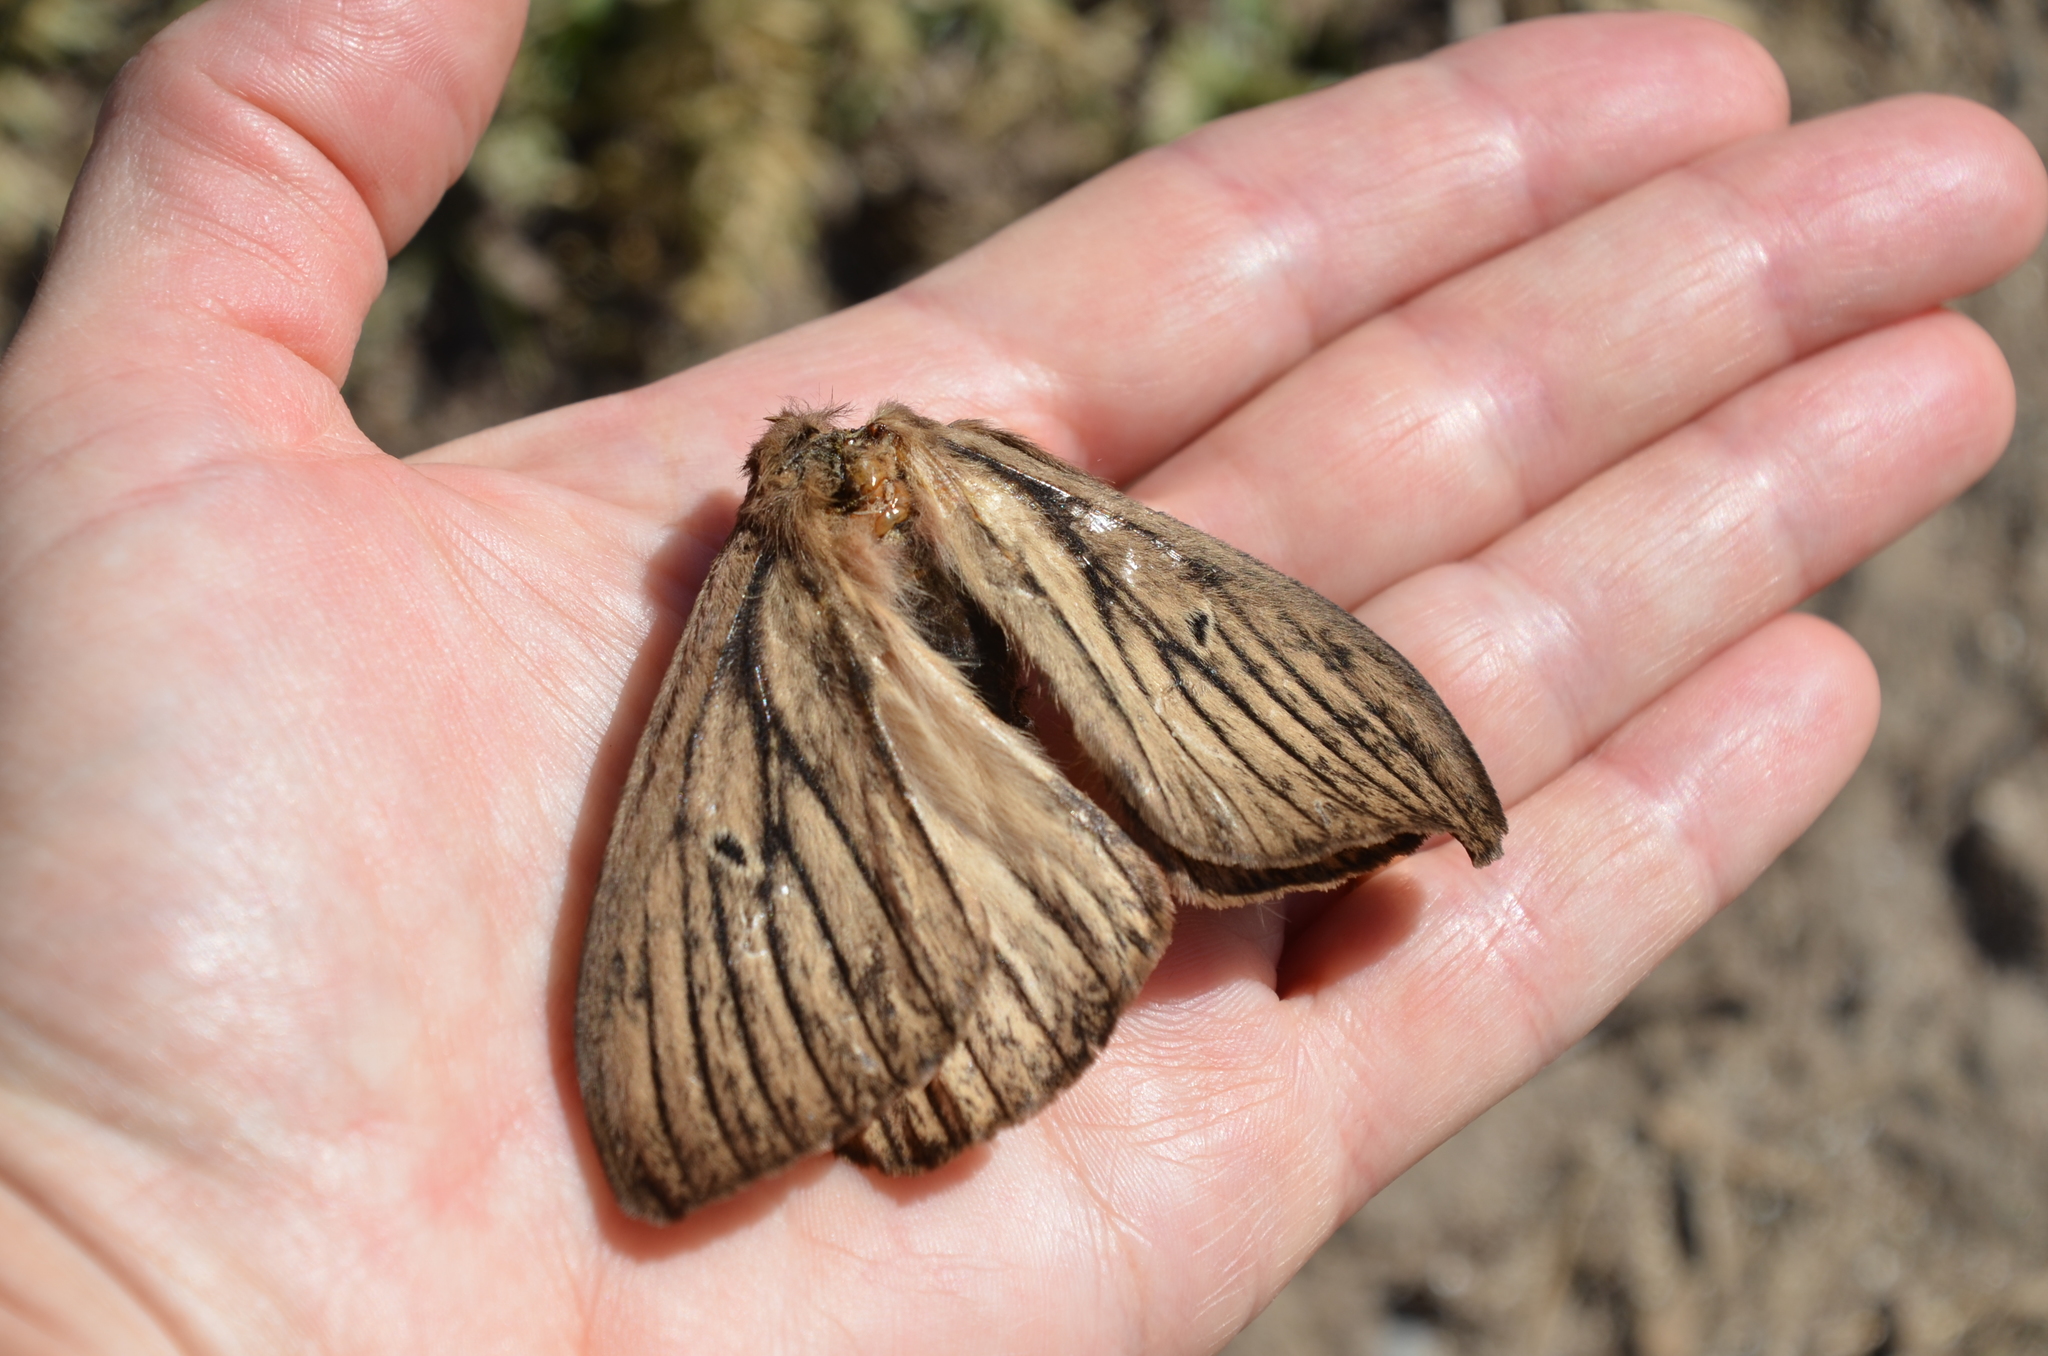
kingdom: Animalia
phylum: Arthropoda
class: Insecta
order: Lepidoptera
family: Saturniidae
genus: Eudyaria
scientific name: Eudyaria zeta
